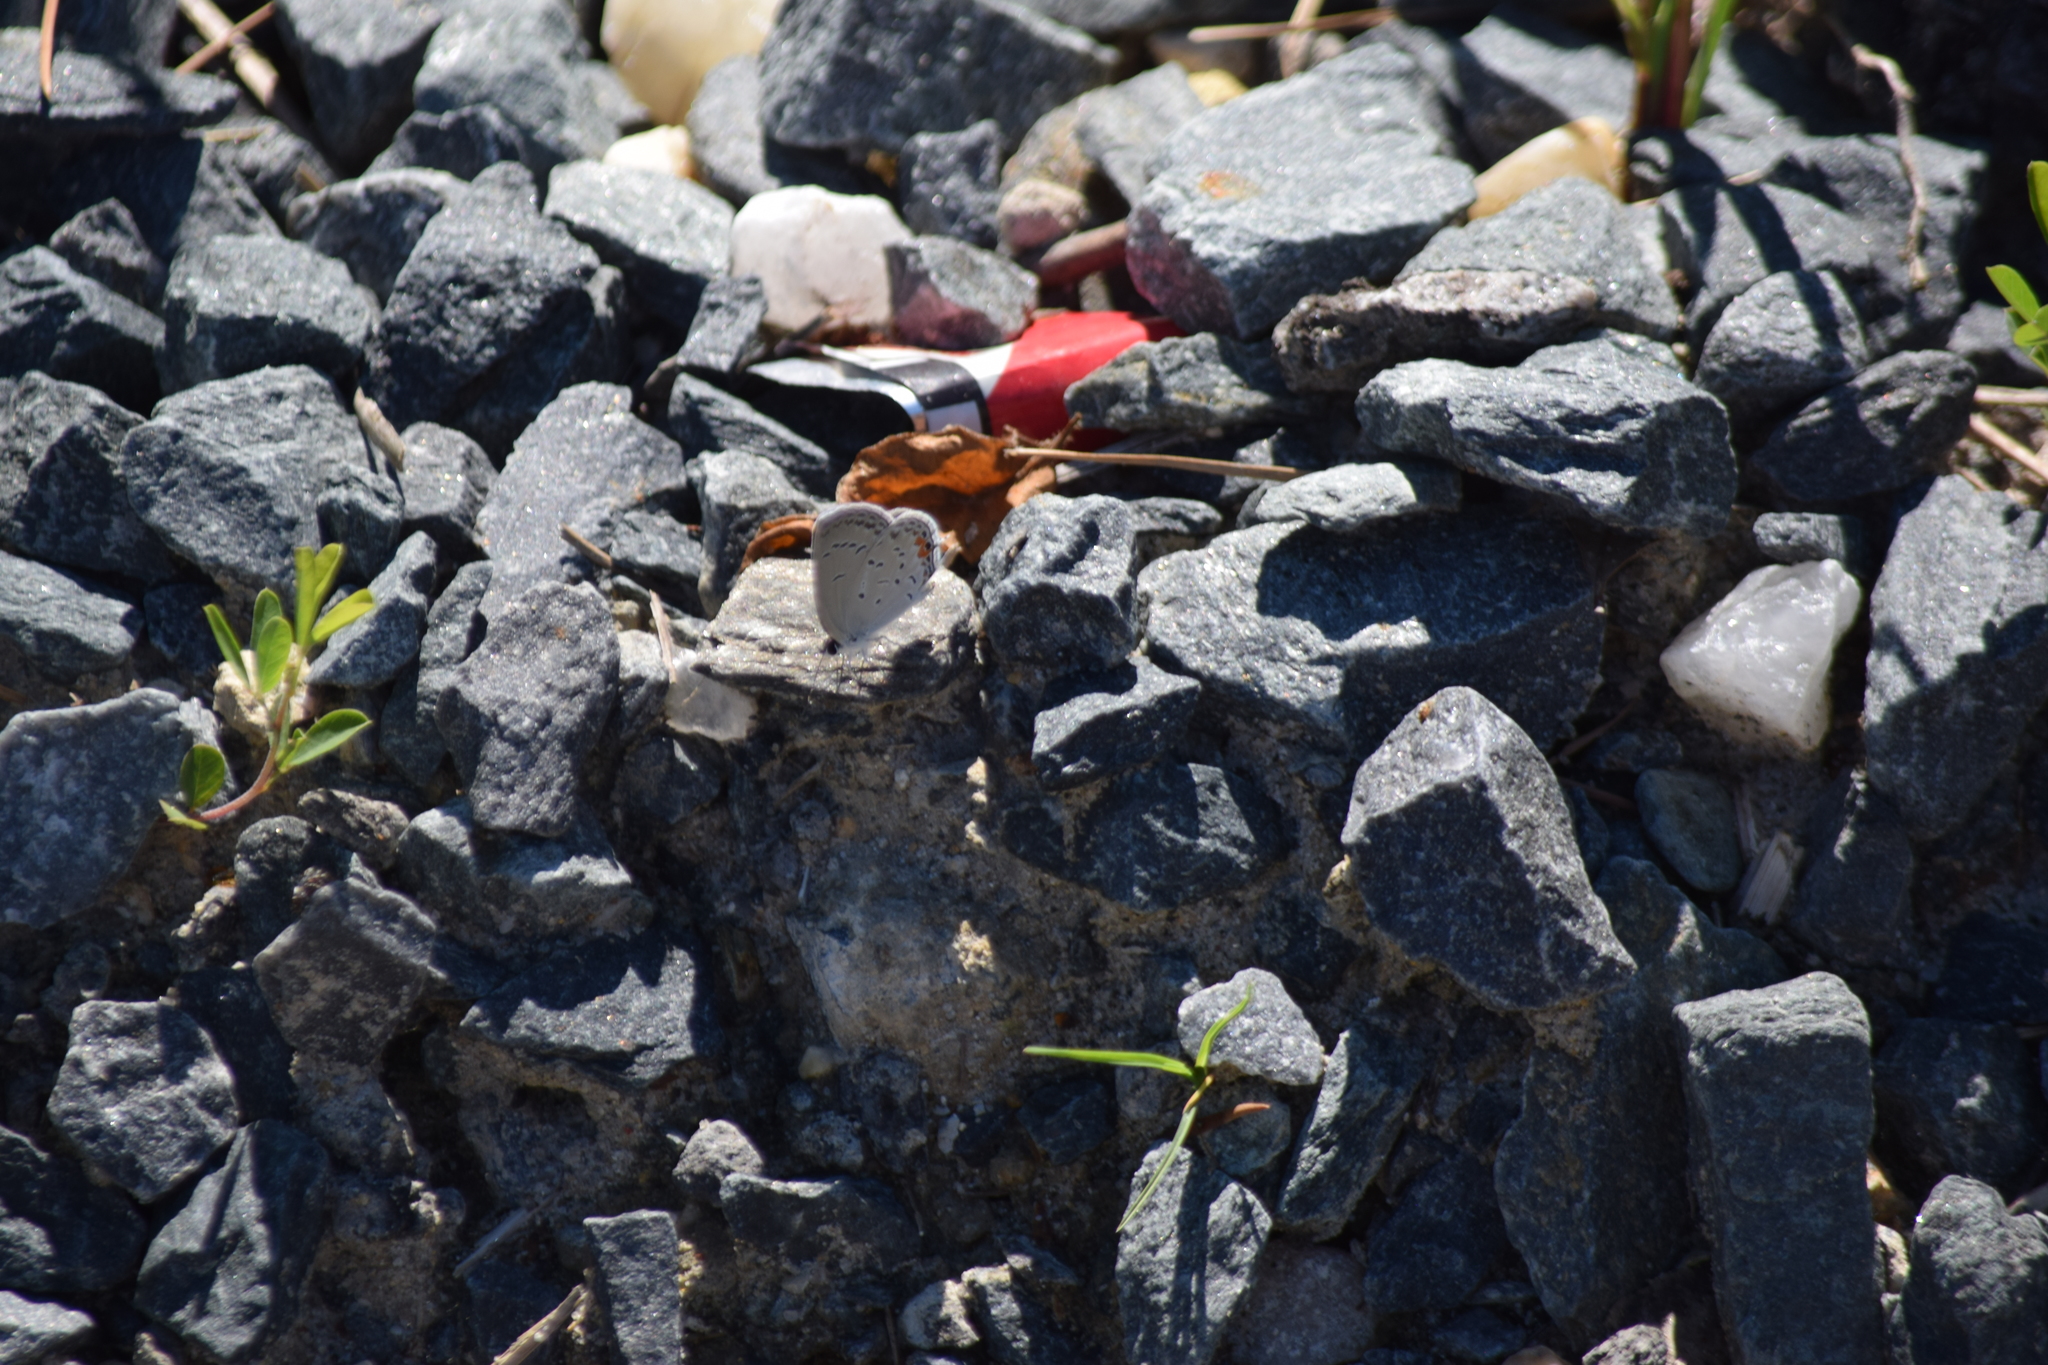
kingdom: Animalia
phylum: Arthropoda
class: Insecta
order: Lepidoptera
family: Lycaenidae
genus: Elkalyce
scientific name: Elkalyce comyntas
